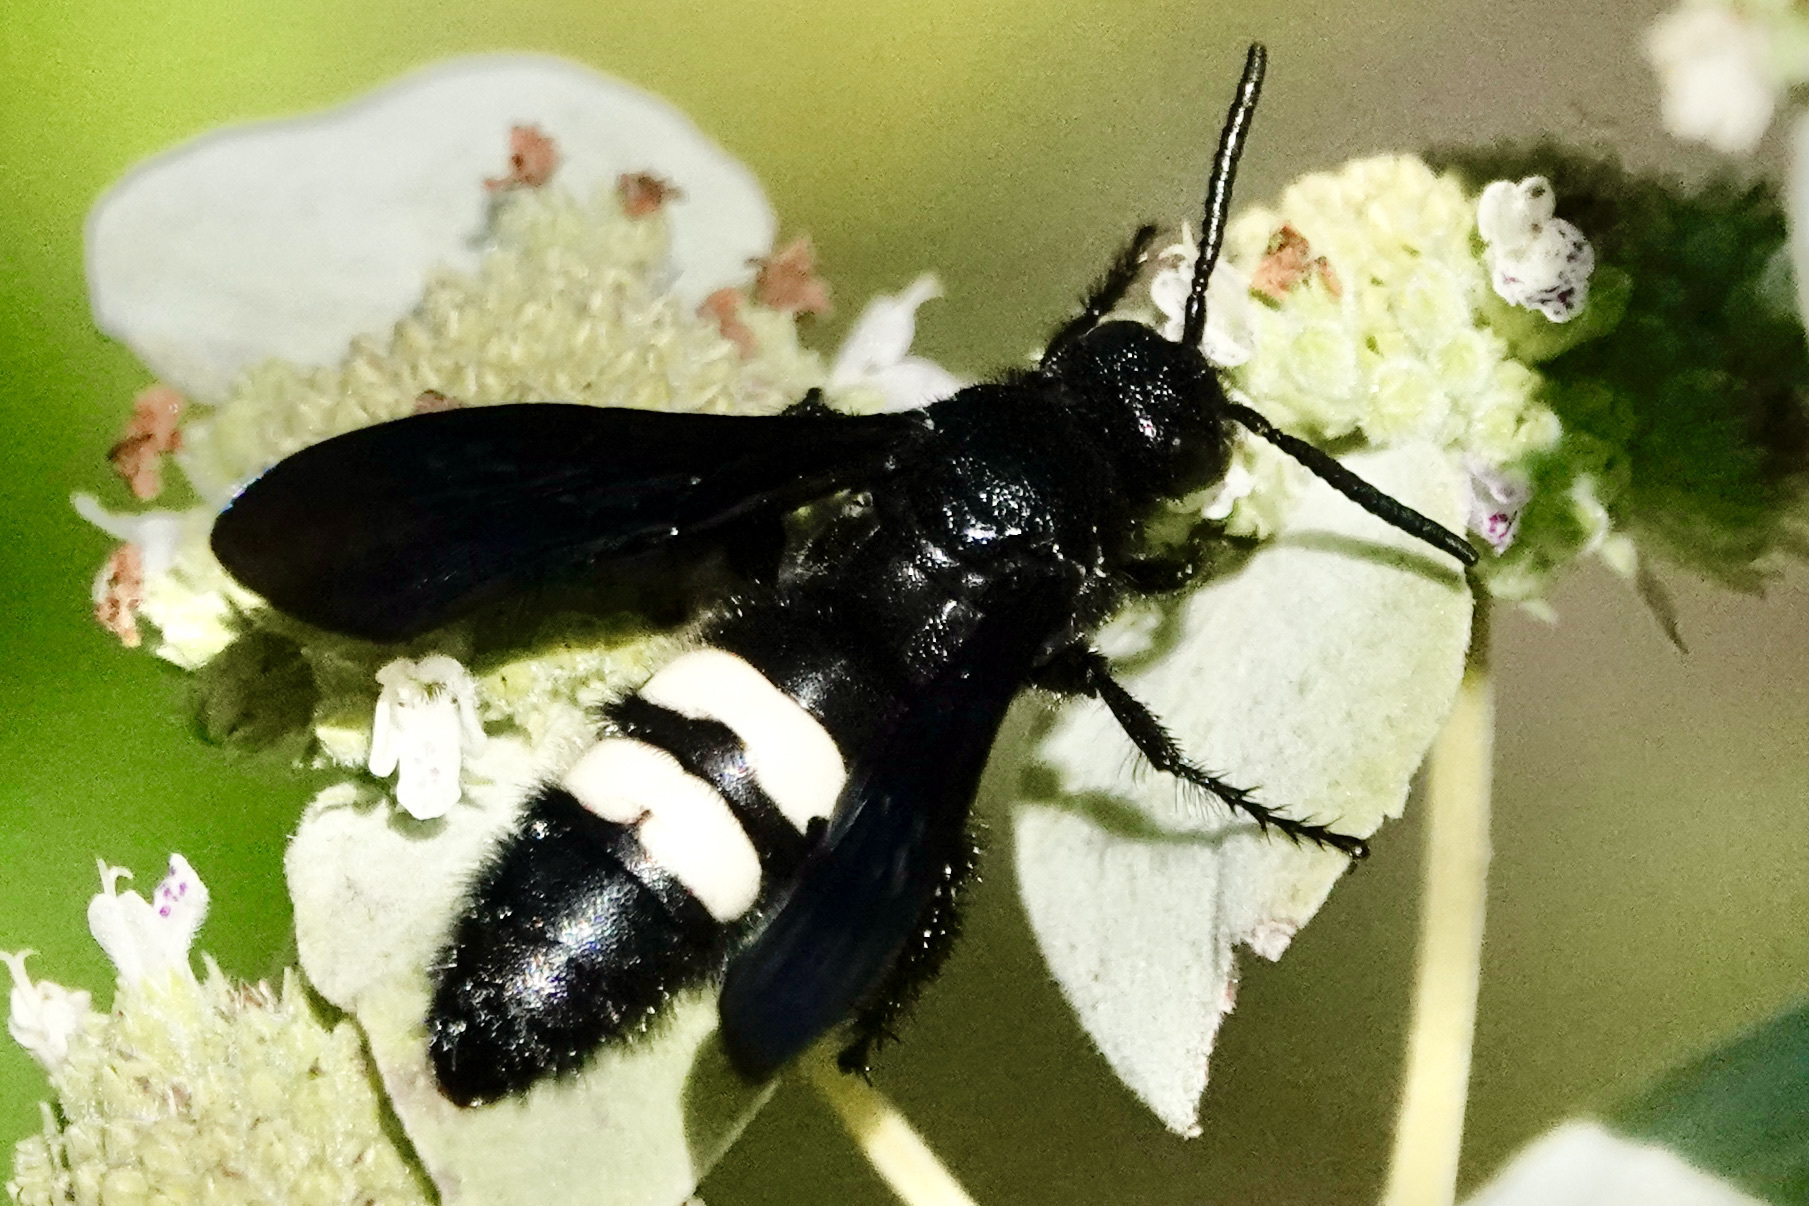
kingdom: Animalia
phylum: Arthropoda
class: Insecta
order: Hymenoptera
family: Scoliidae
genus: Scolia
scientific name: Scolia bicincta
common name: Double-banded scoliid wasp
